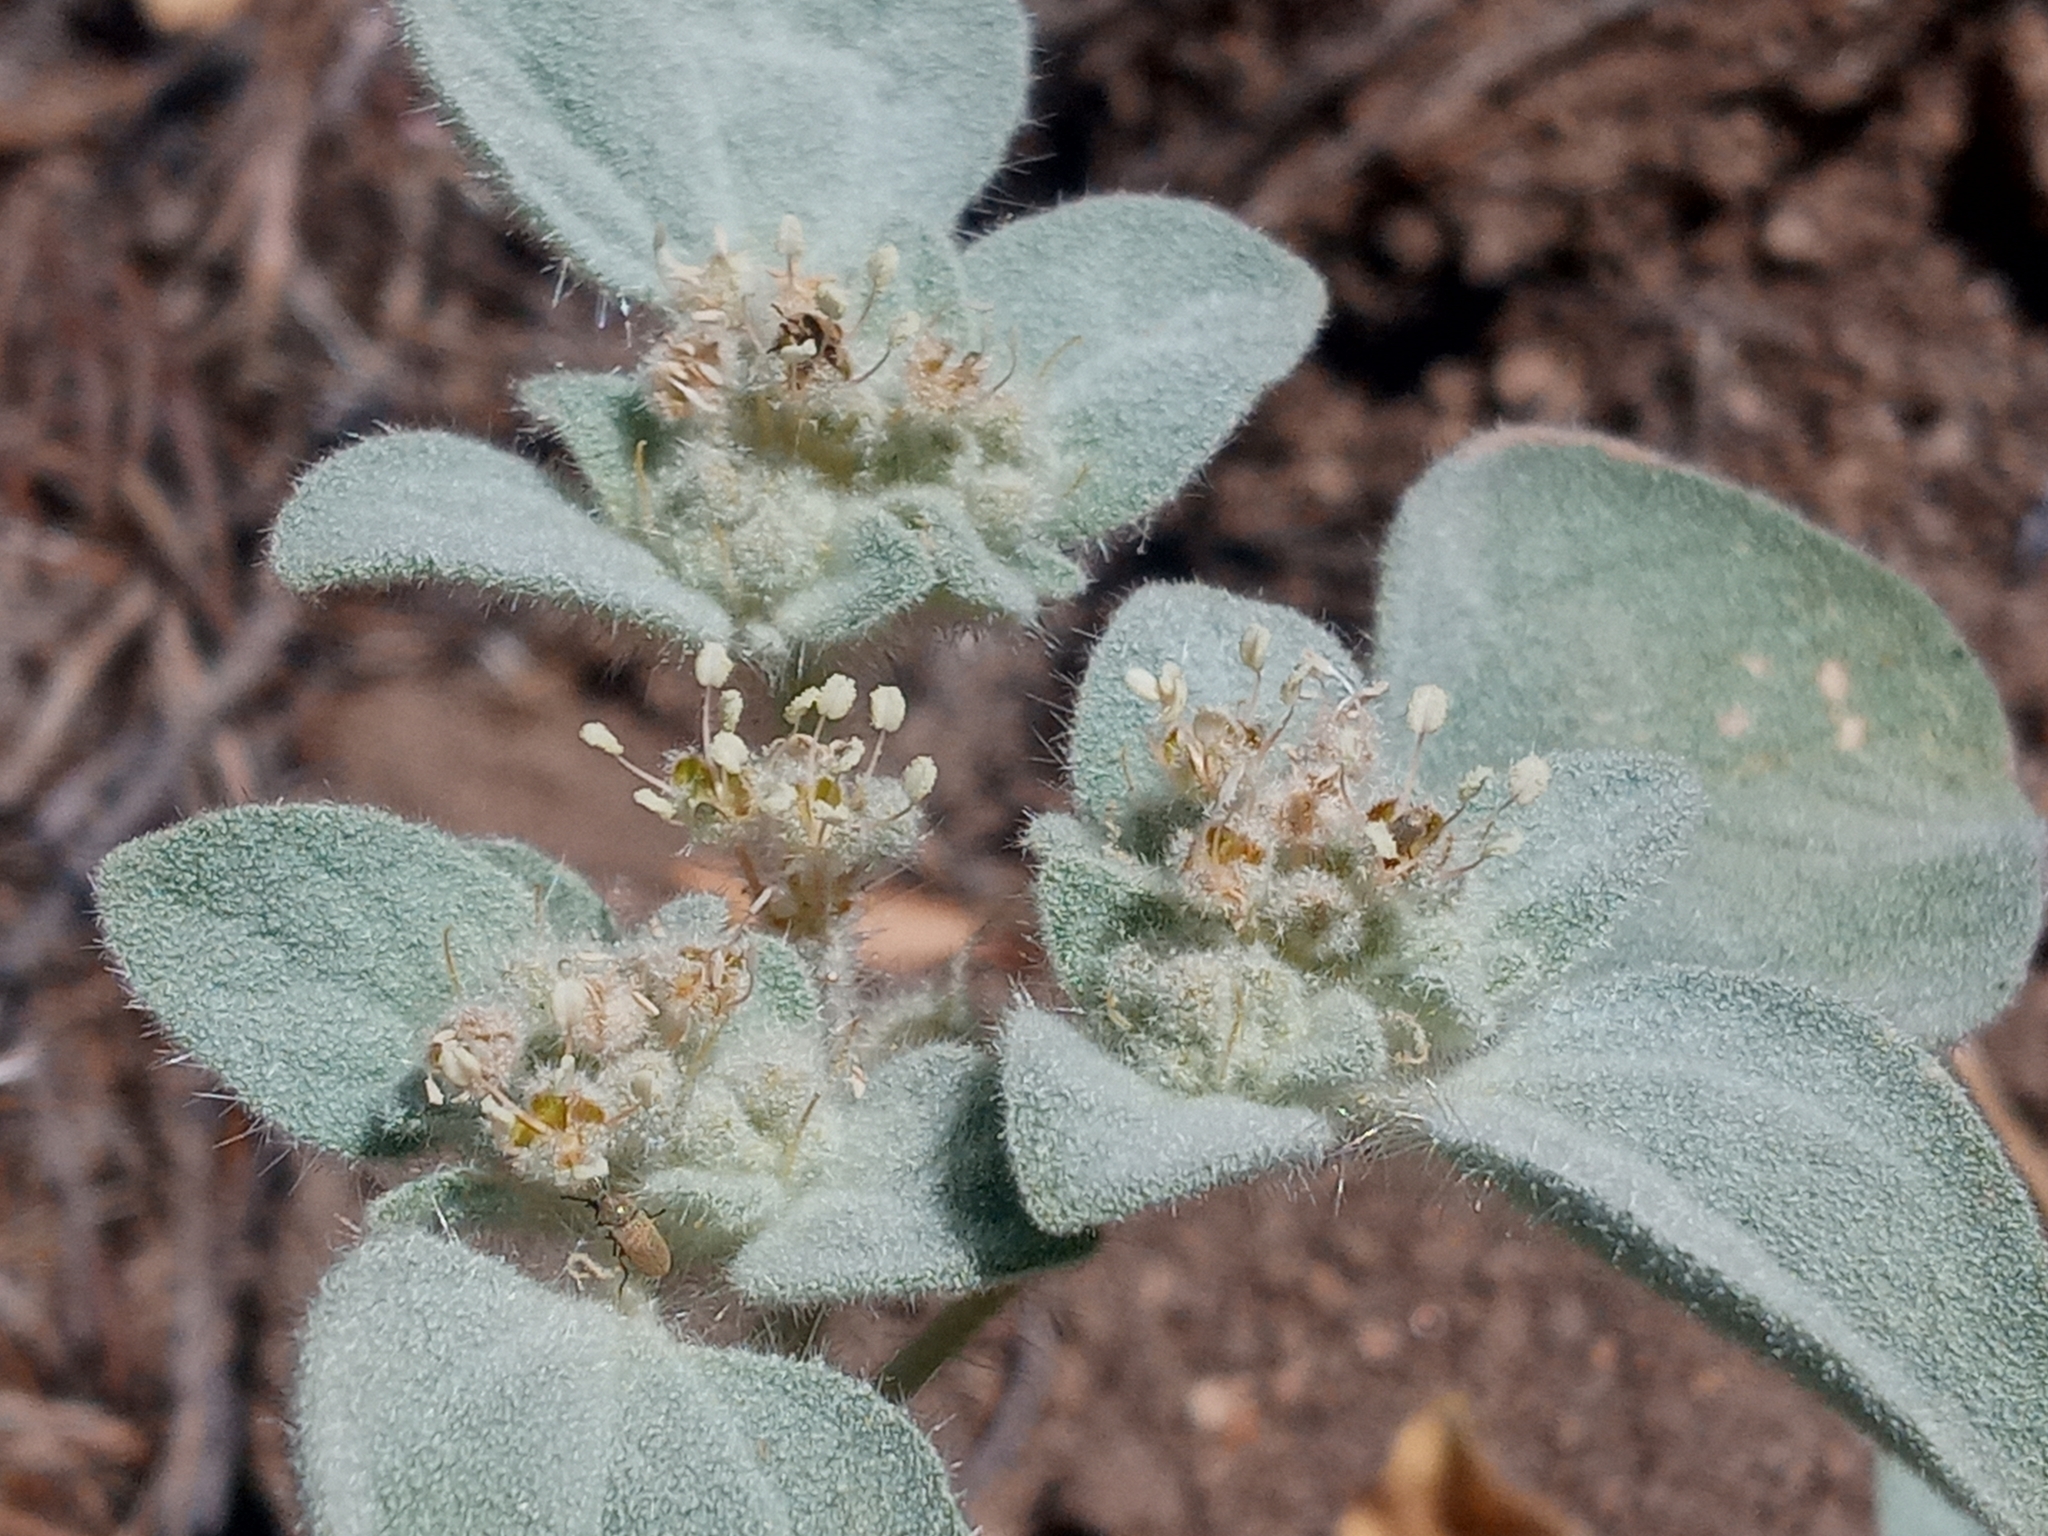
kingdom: Plantae
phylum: Tracheophyta
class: Magnoliopsida
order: Malpighiales
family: Euphorbiaceae
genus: Croton
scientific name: Croton setiger
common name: Dove weed
